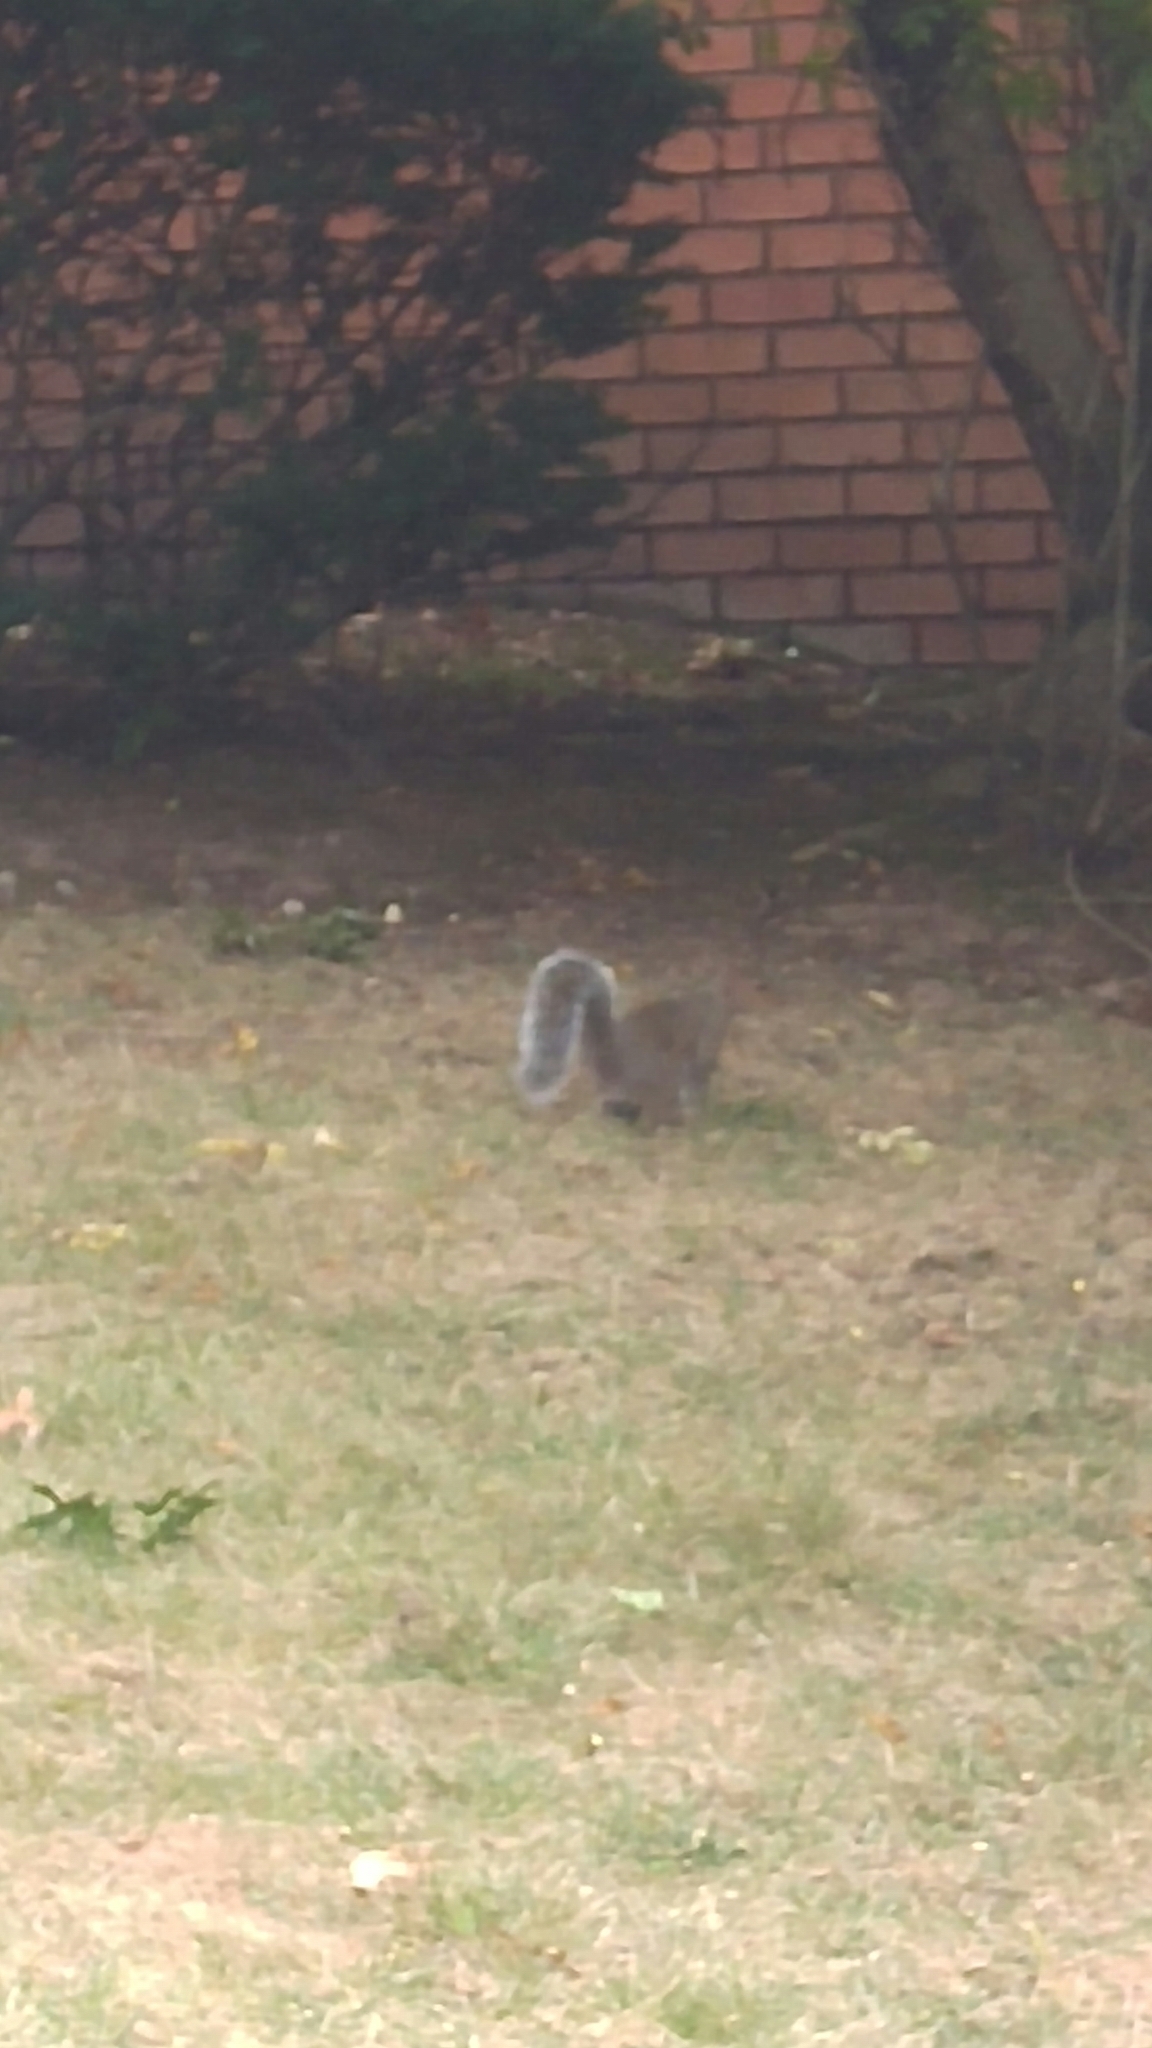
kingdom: Animalia
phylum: Chordata
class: Mammalia
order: Rodentia
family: Sciuridae
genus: Sciurus
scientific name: Sciurus carolinensis
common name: Eastern gray squirrel
